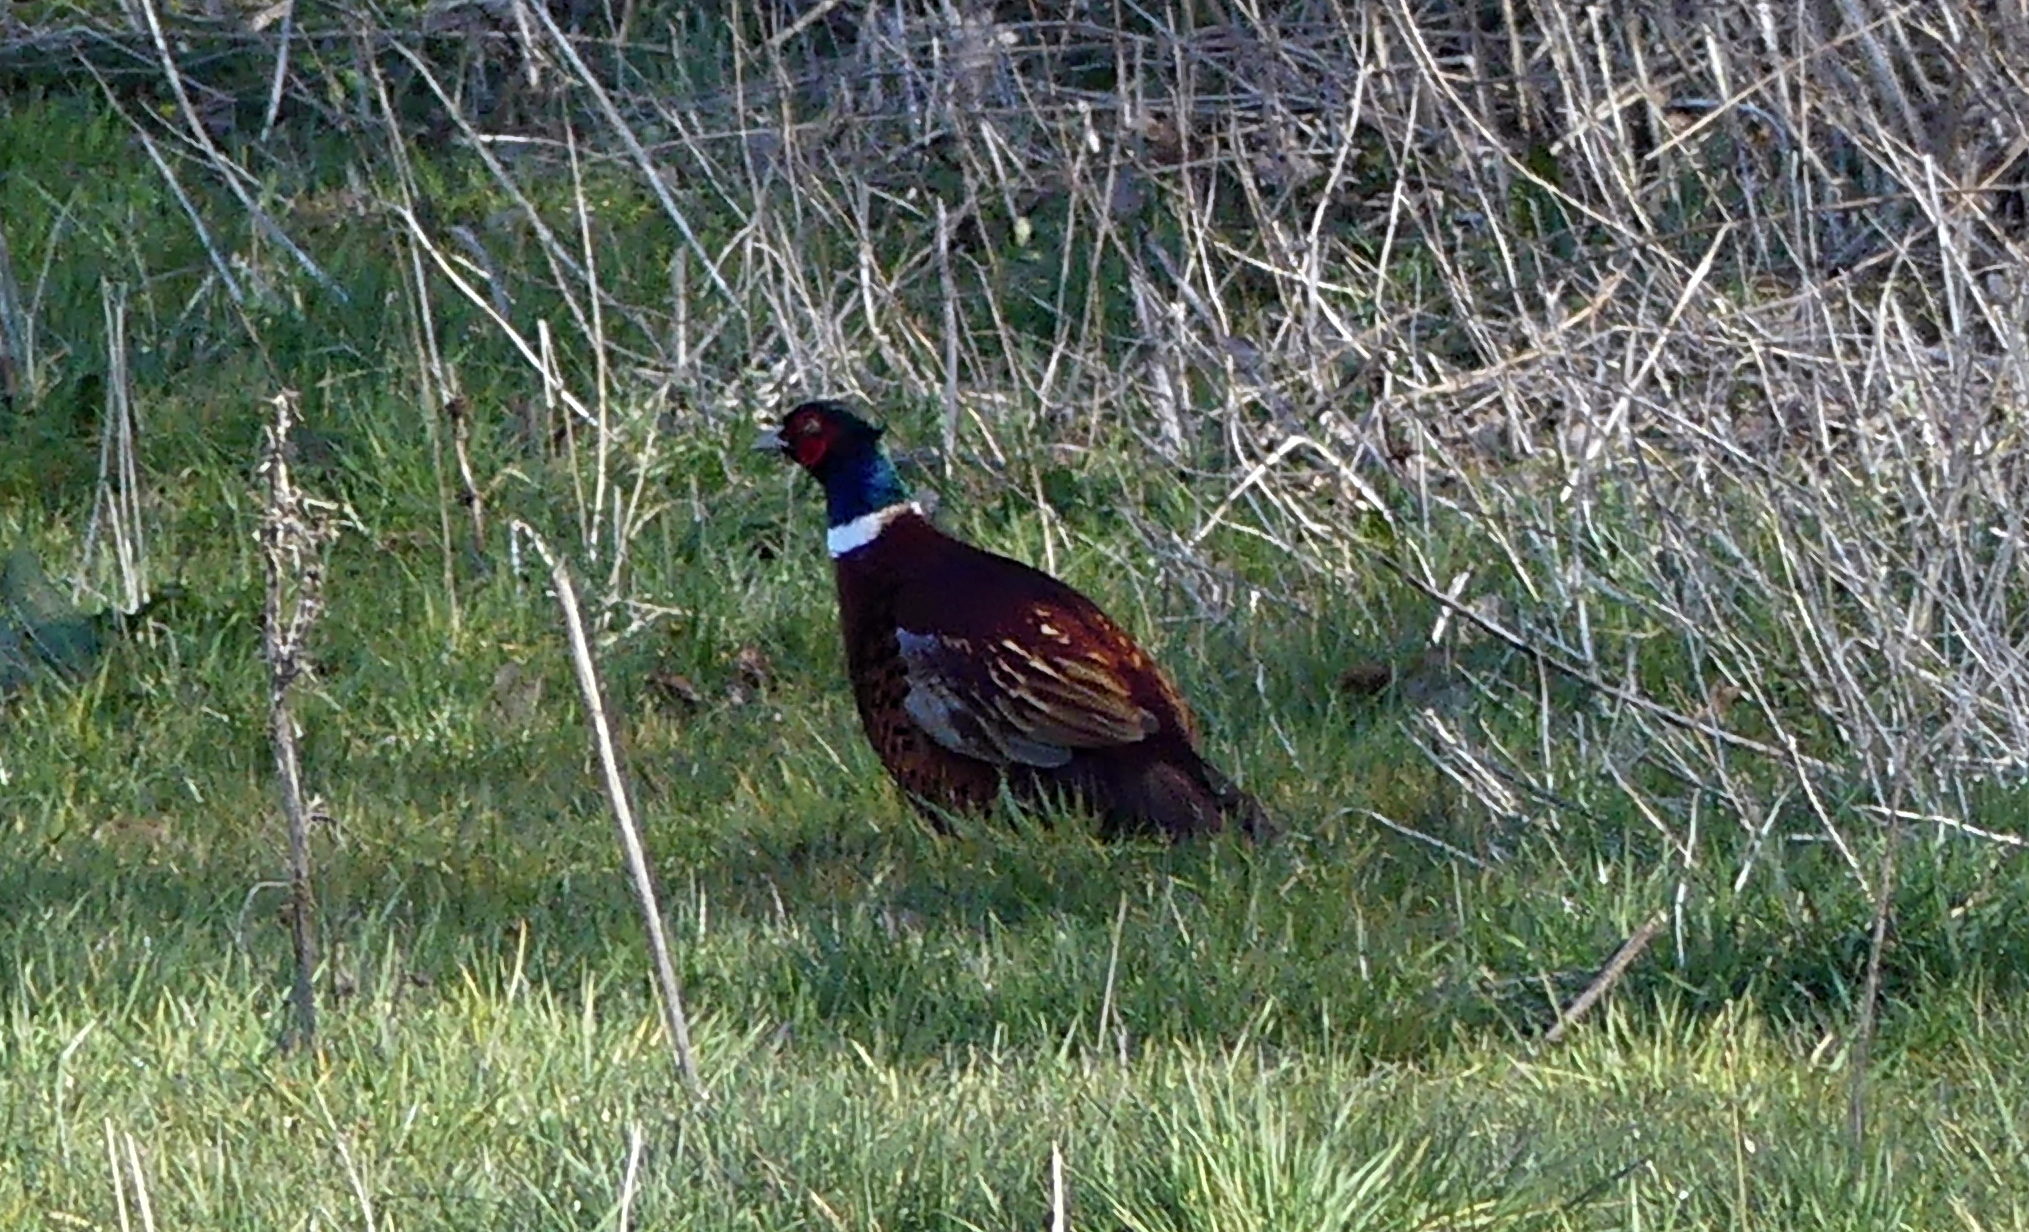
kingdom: Animalia
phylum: Chordata
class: Aves
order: Galliformes
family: Phasianidae
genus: Phasianus
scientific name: Phasianus colchicus
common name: Common pheasant
